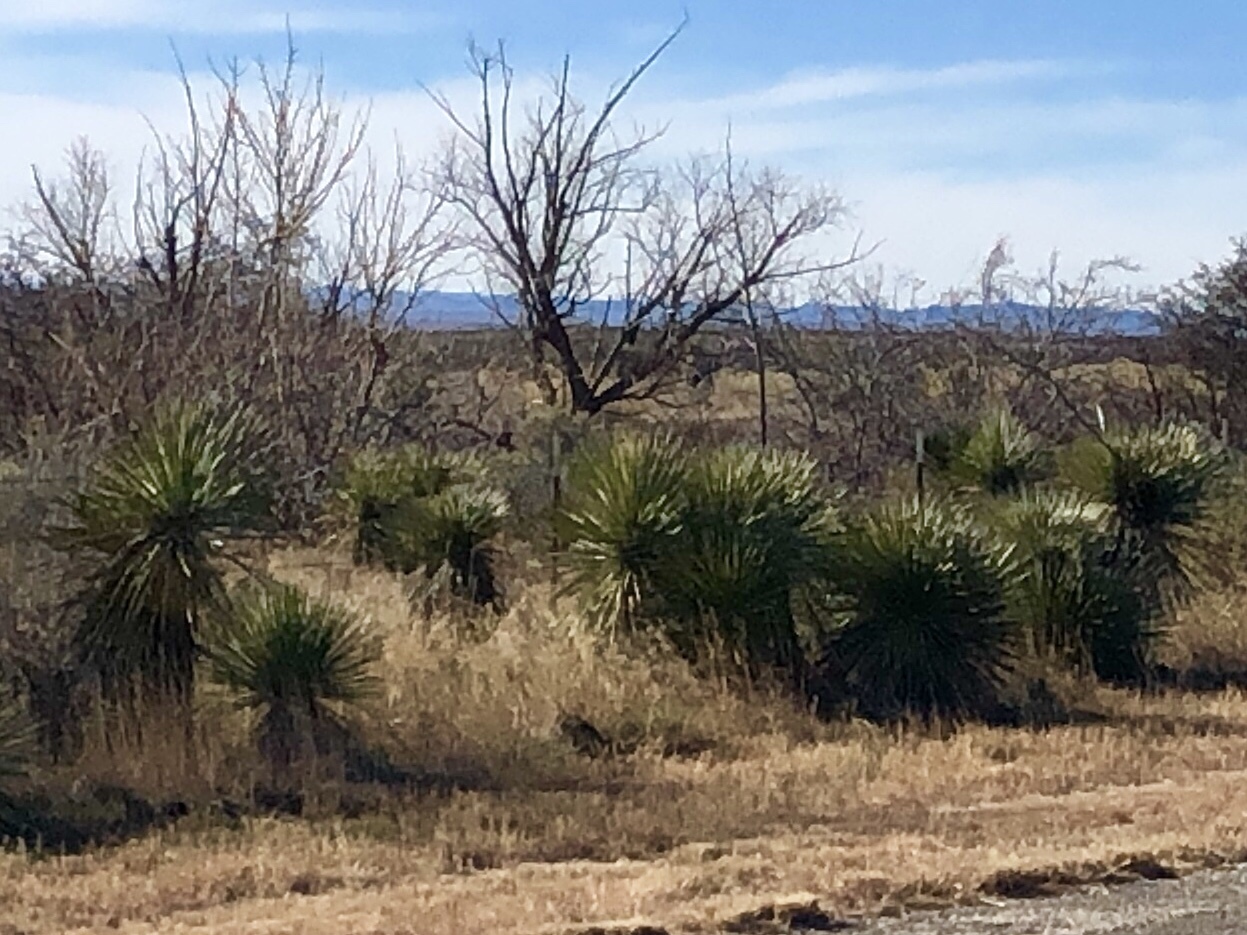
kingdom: Plantae
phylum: Tracheophyta
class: Liliopsida
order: Asparagales
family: Asparagaceae
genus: Yucca
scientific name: Yucca elata
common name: Palmella
